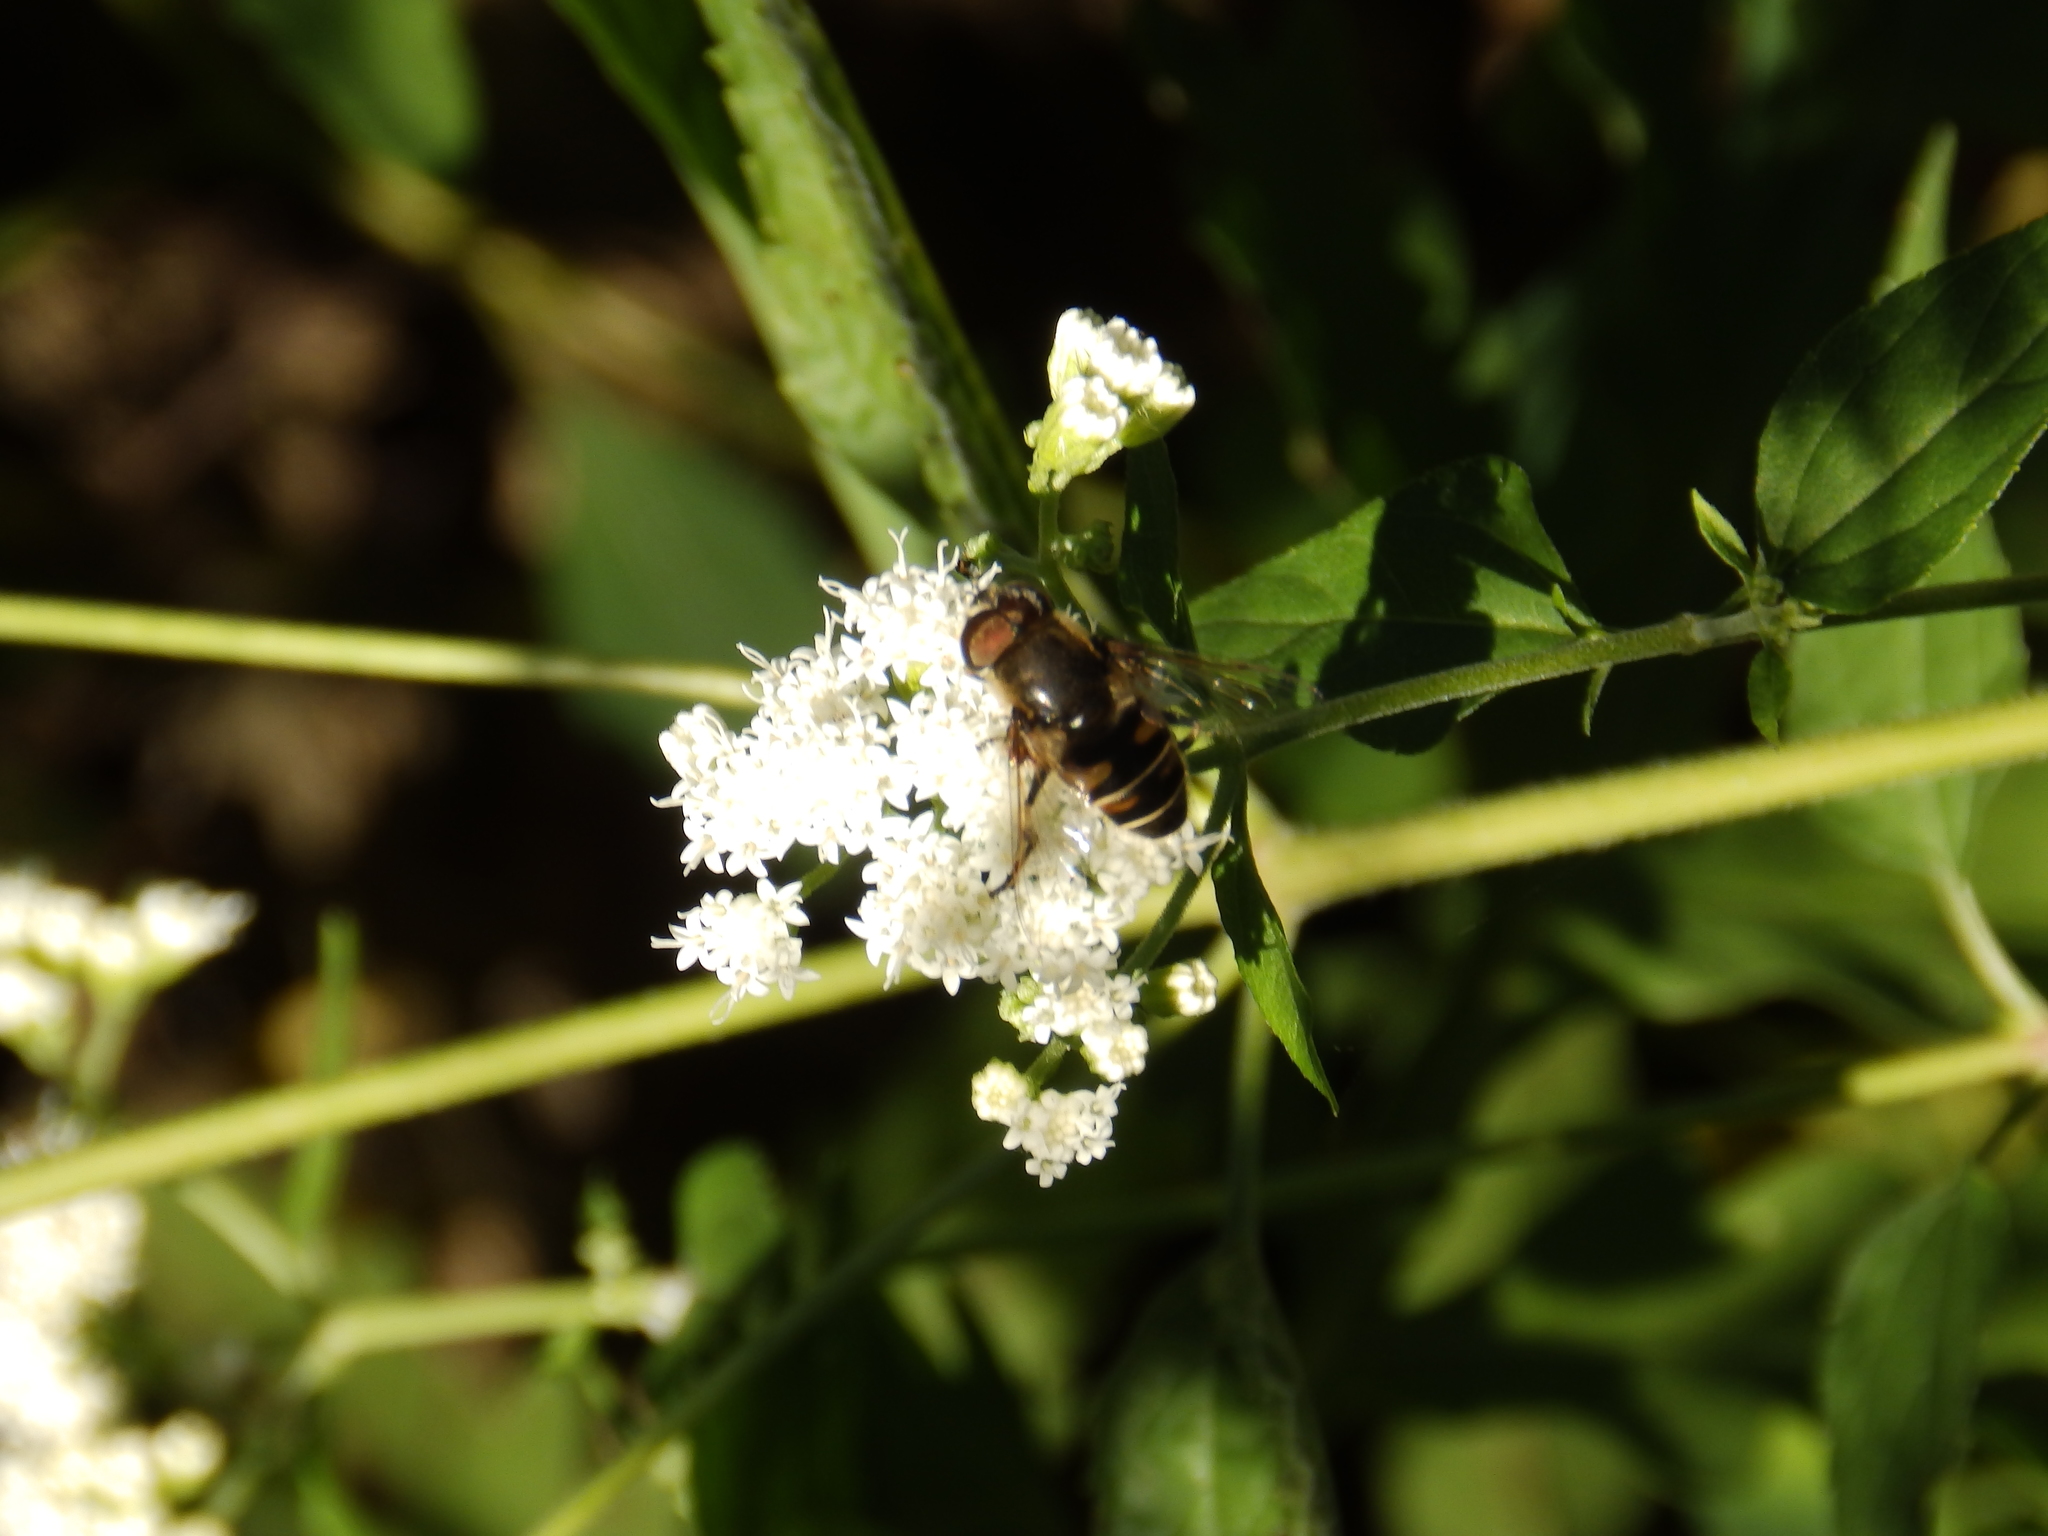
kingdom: Animalia
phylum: Arthropoda
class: Insecta
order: Diptera
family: Syrphidae
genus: Eristalis
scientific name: Eristalis dimidiata
